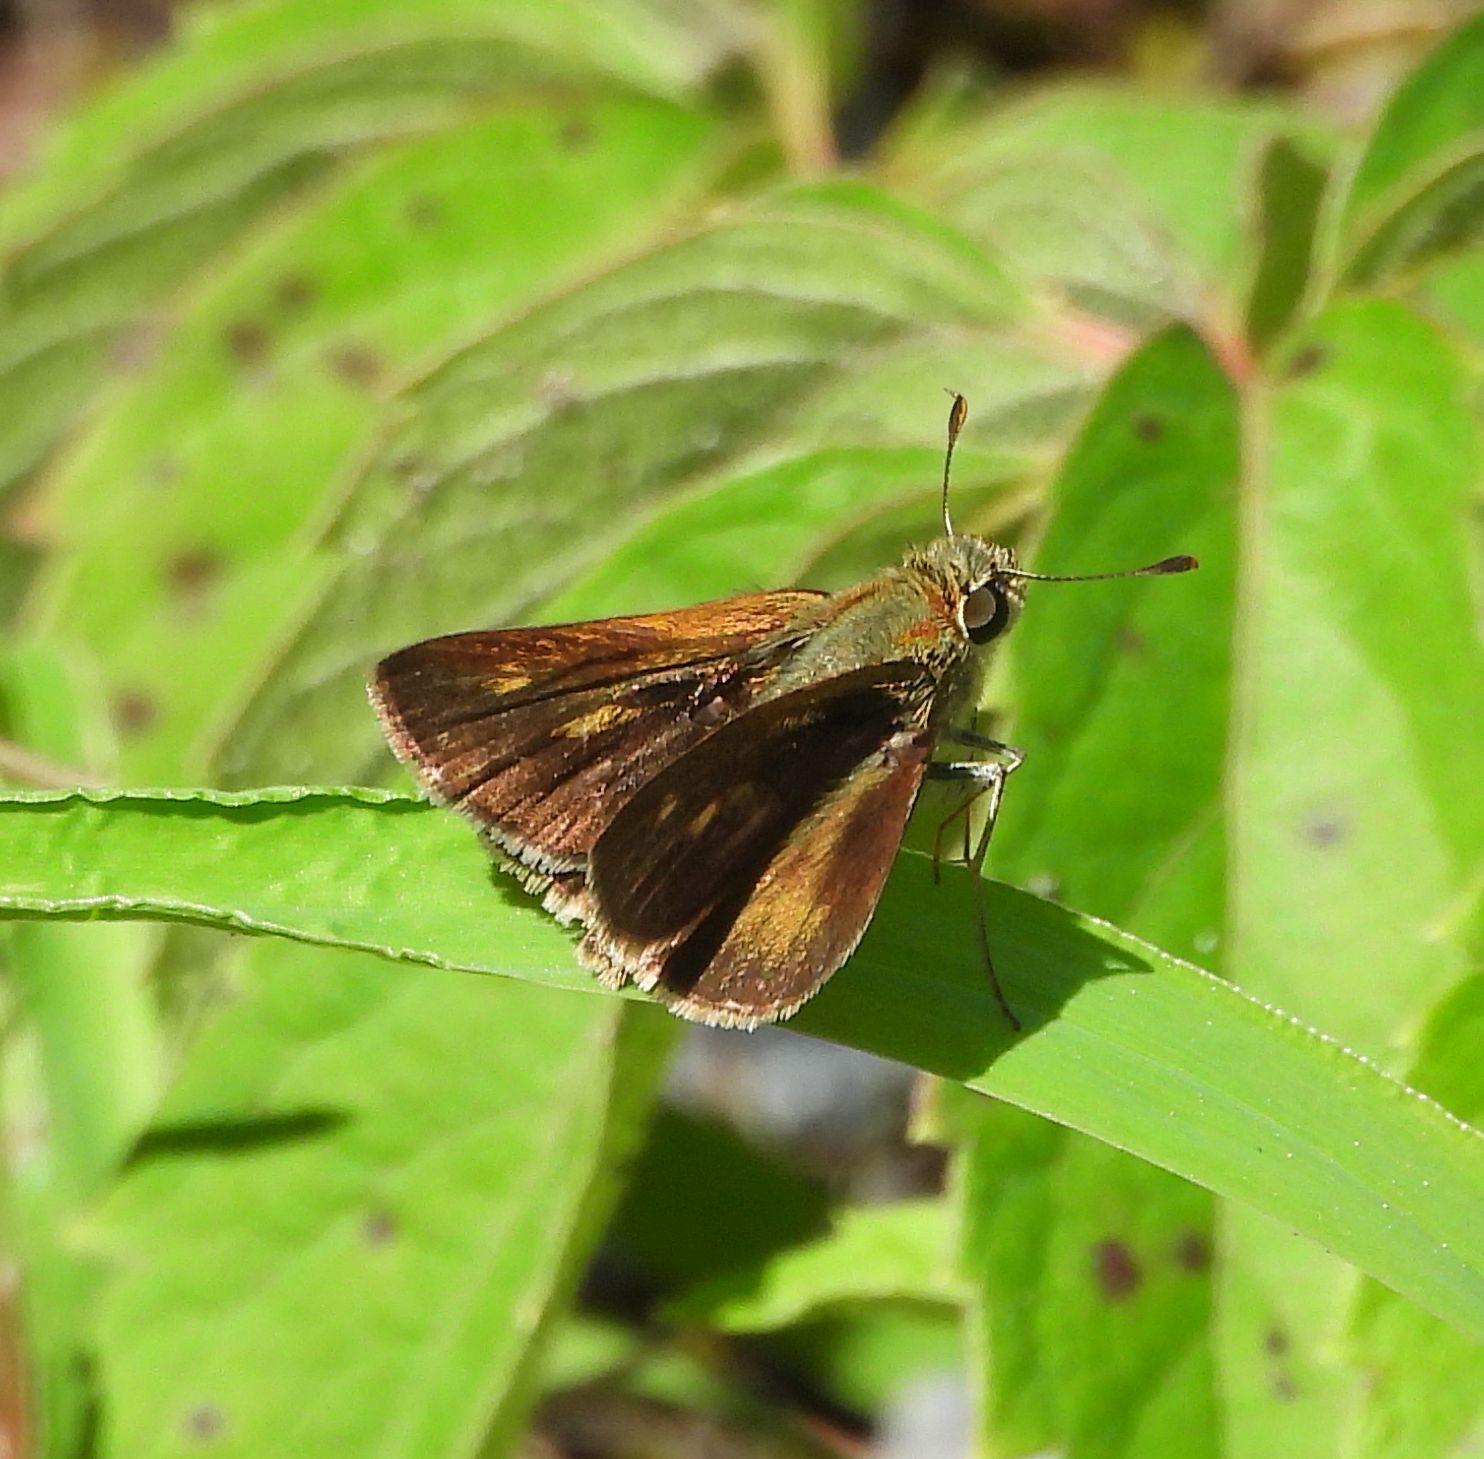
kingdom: Animalia
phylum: Arthropoda
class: Insecta
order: Lepidoptera
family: Hesperiidae
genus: Polites
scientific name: Polites egeremet
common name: Northern broken-dash
